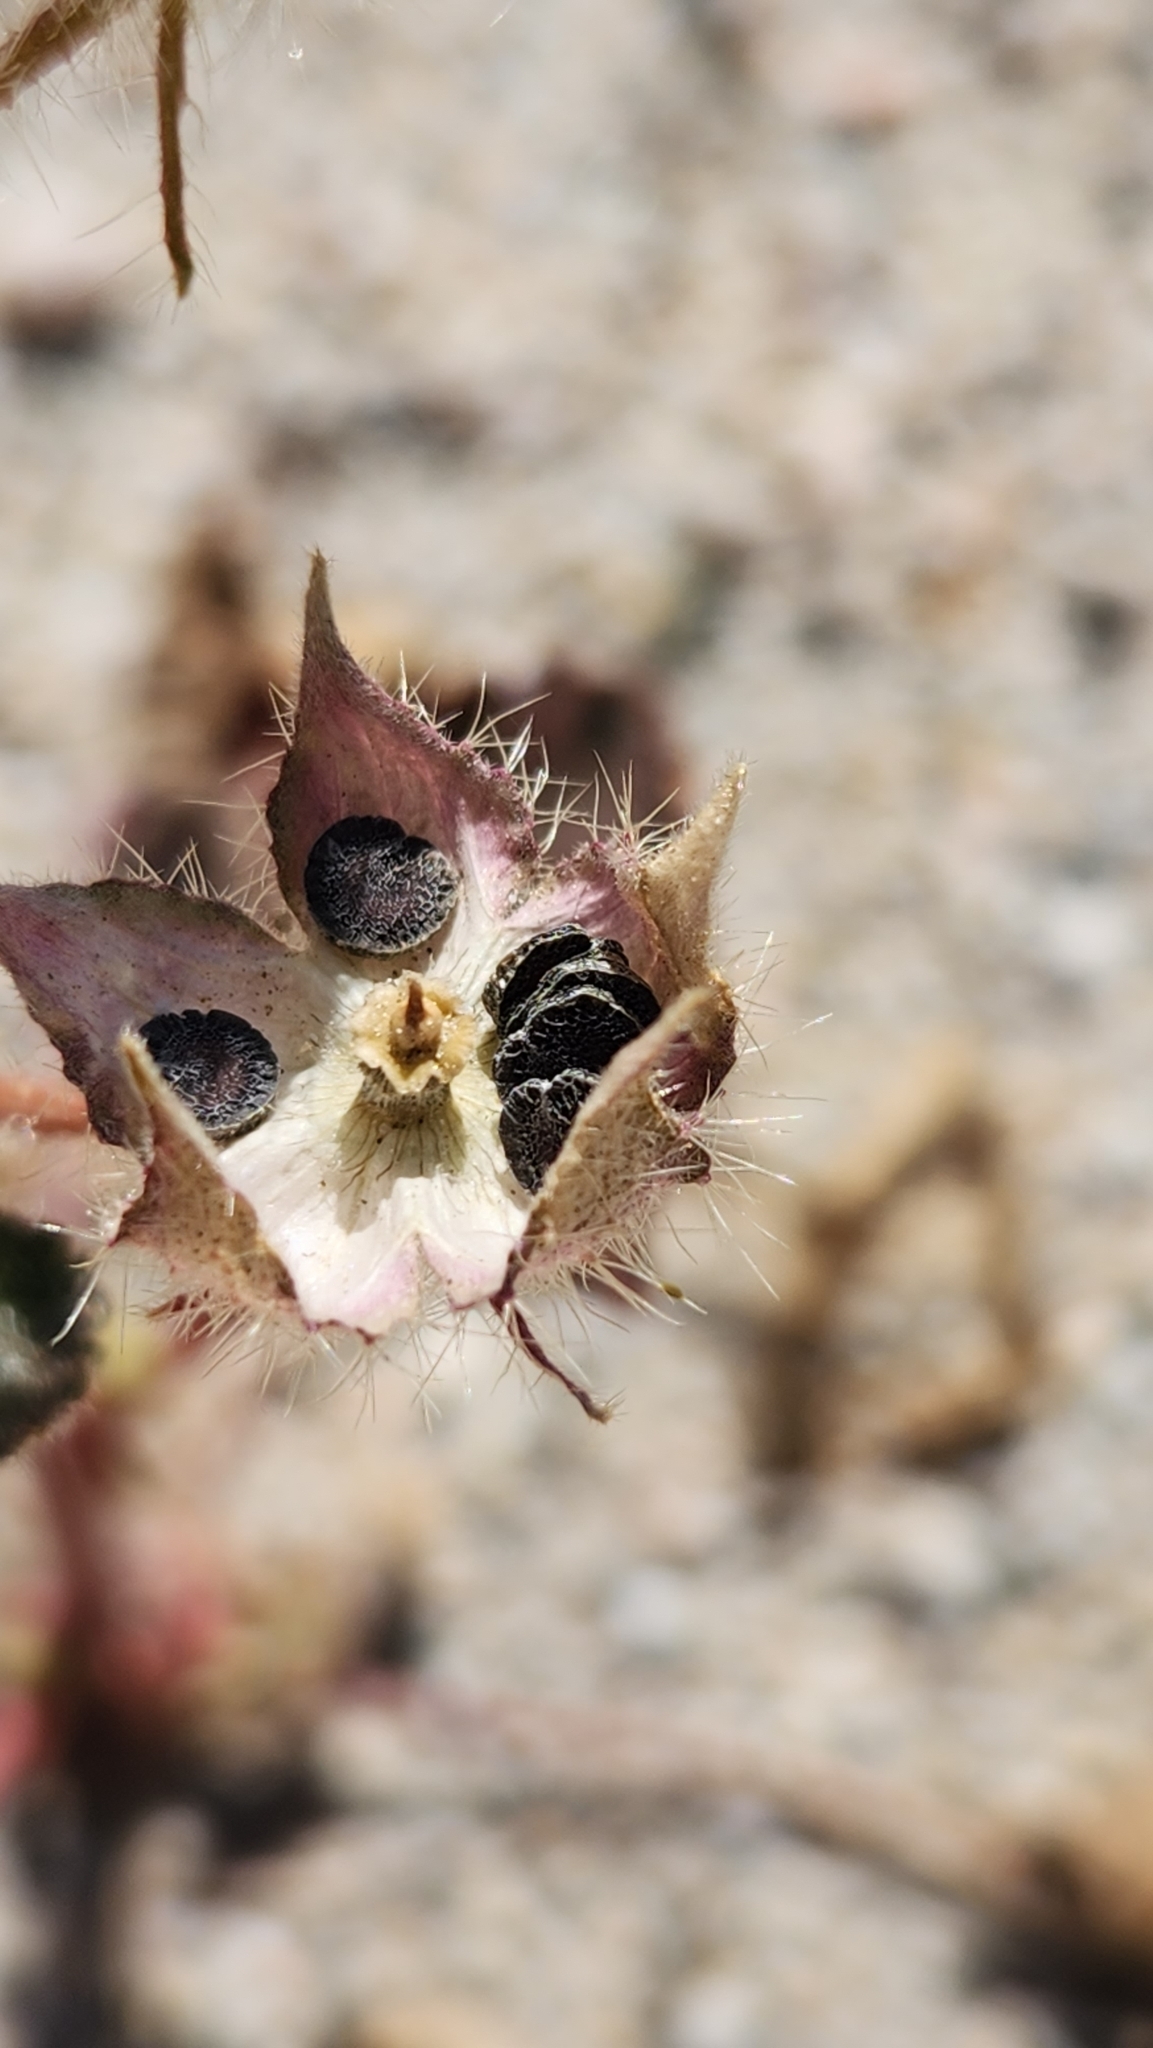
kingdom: Plantae
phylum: Tracheophyta
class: Magnoliopsida
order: Malvales
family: Malvaceae
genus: Eremalche
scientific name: Eremalche rotundifolia
